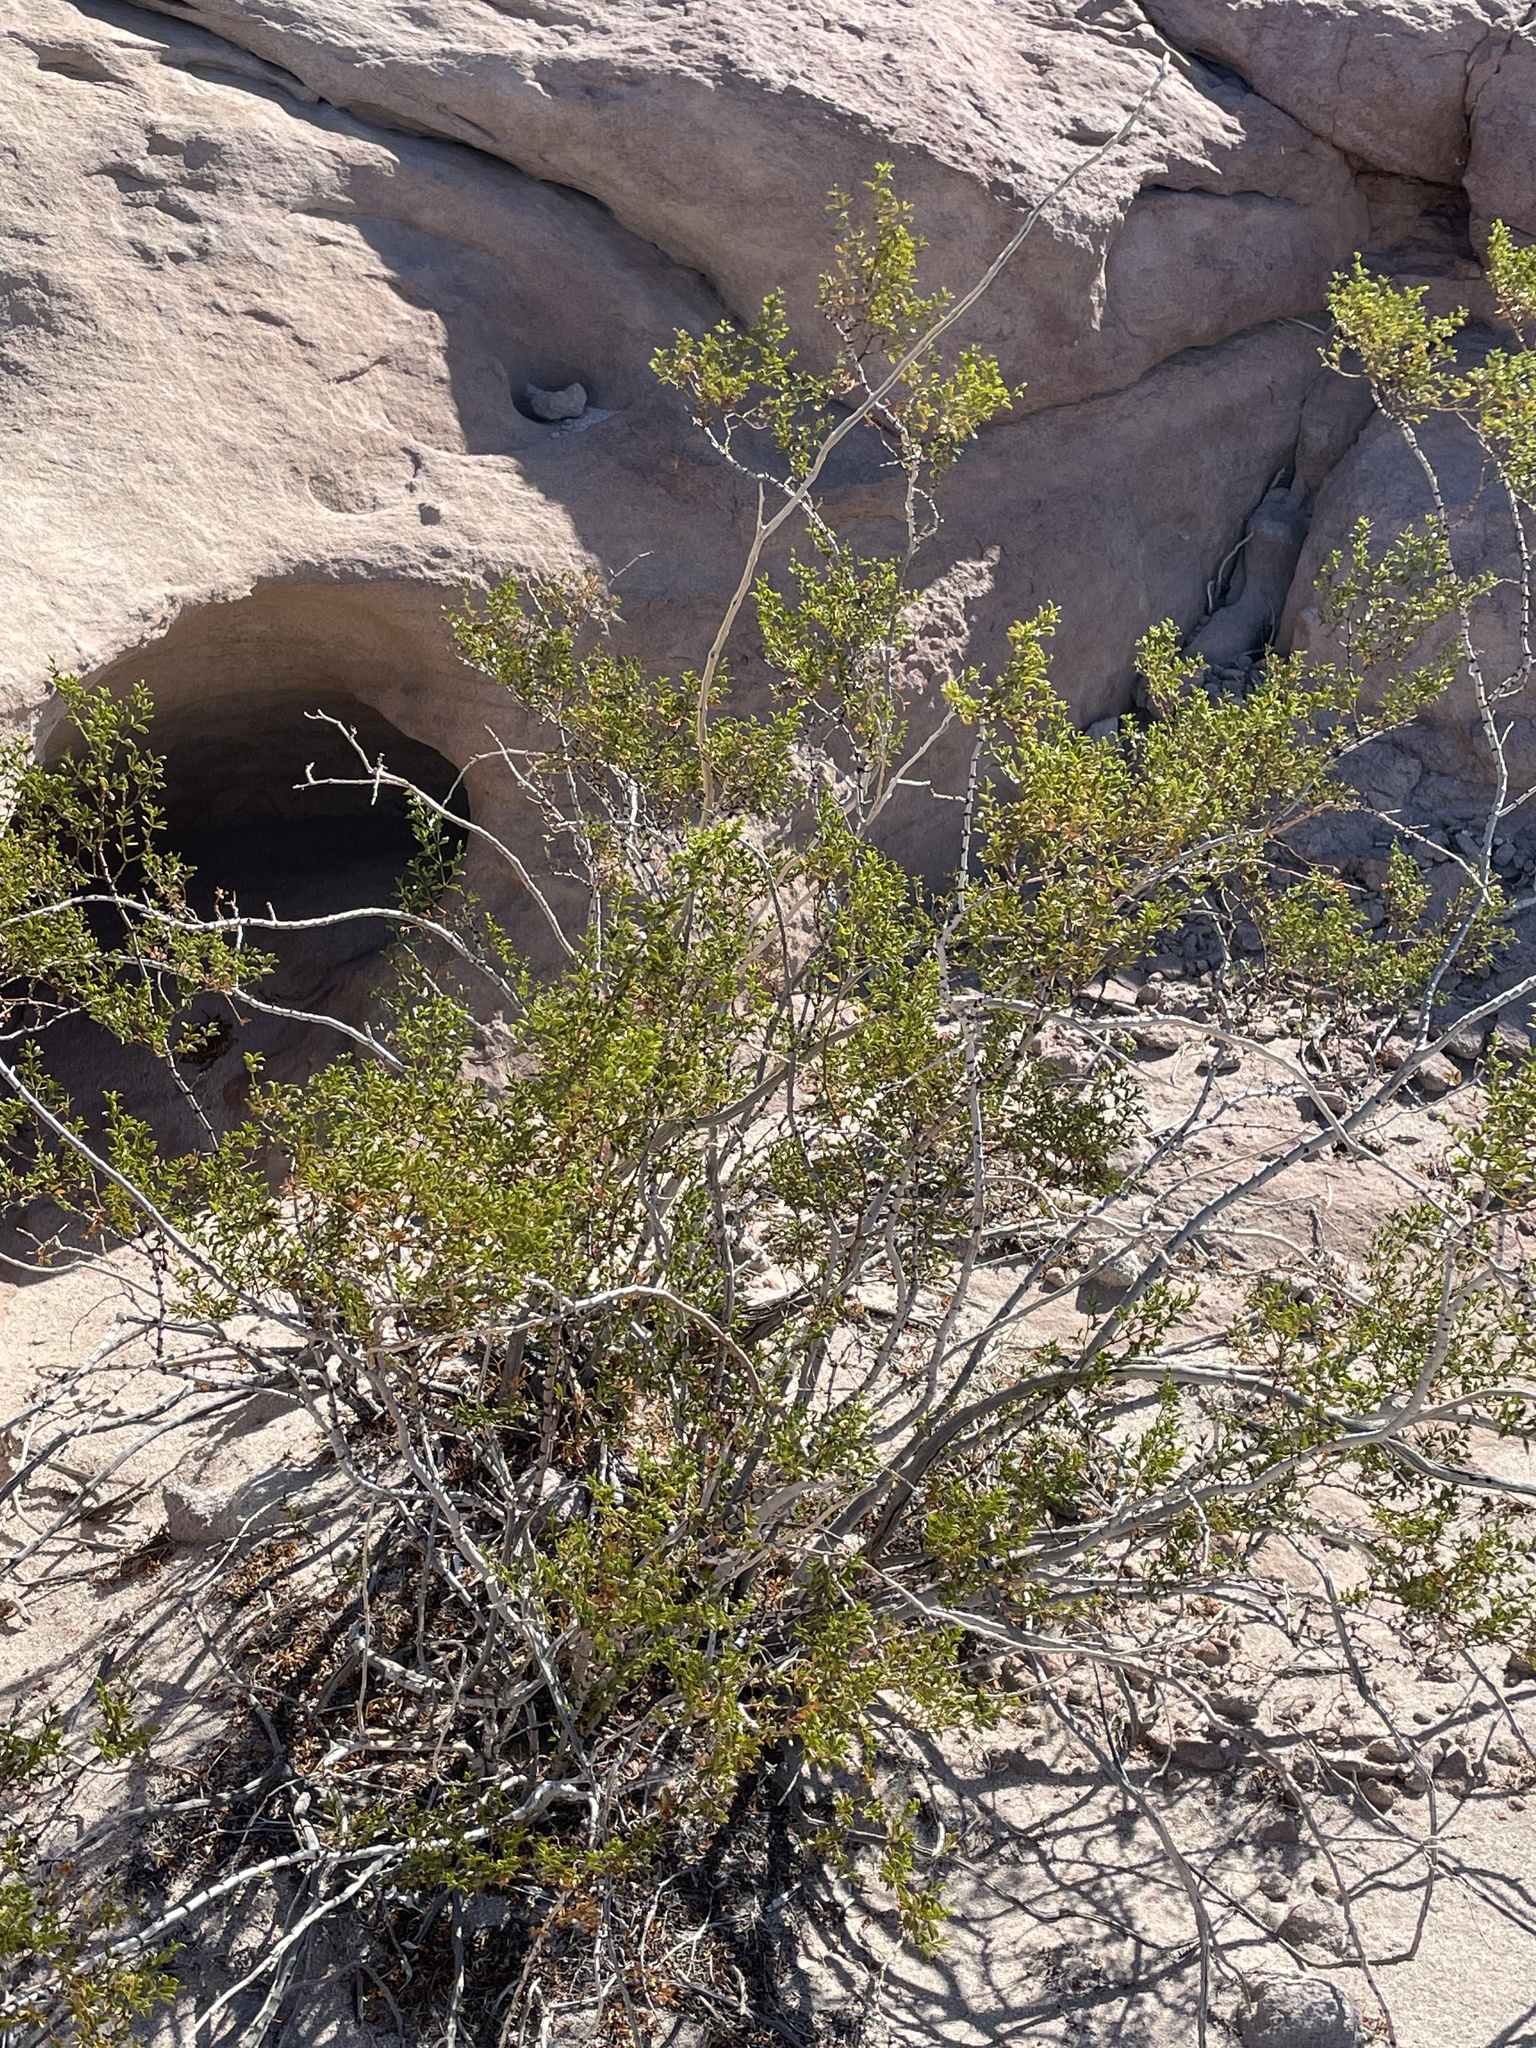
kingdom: Plantae
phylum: Tracheophyta
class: Magnoliopsida
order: Zygophyllales
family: Zygophyllaceae
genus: Larrea
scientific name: Larrea tridentata
